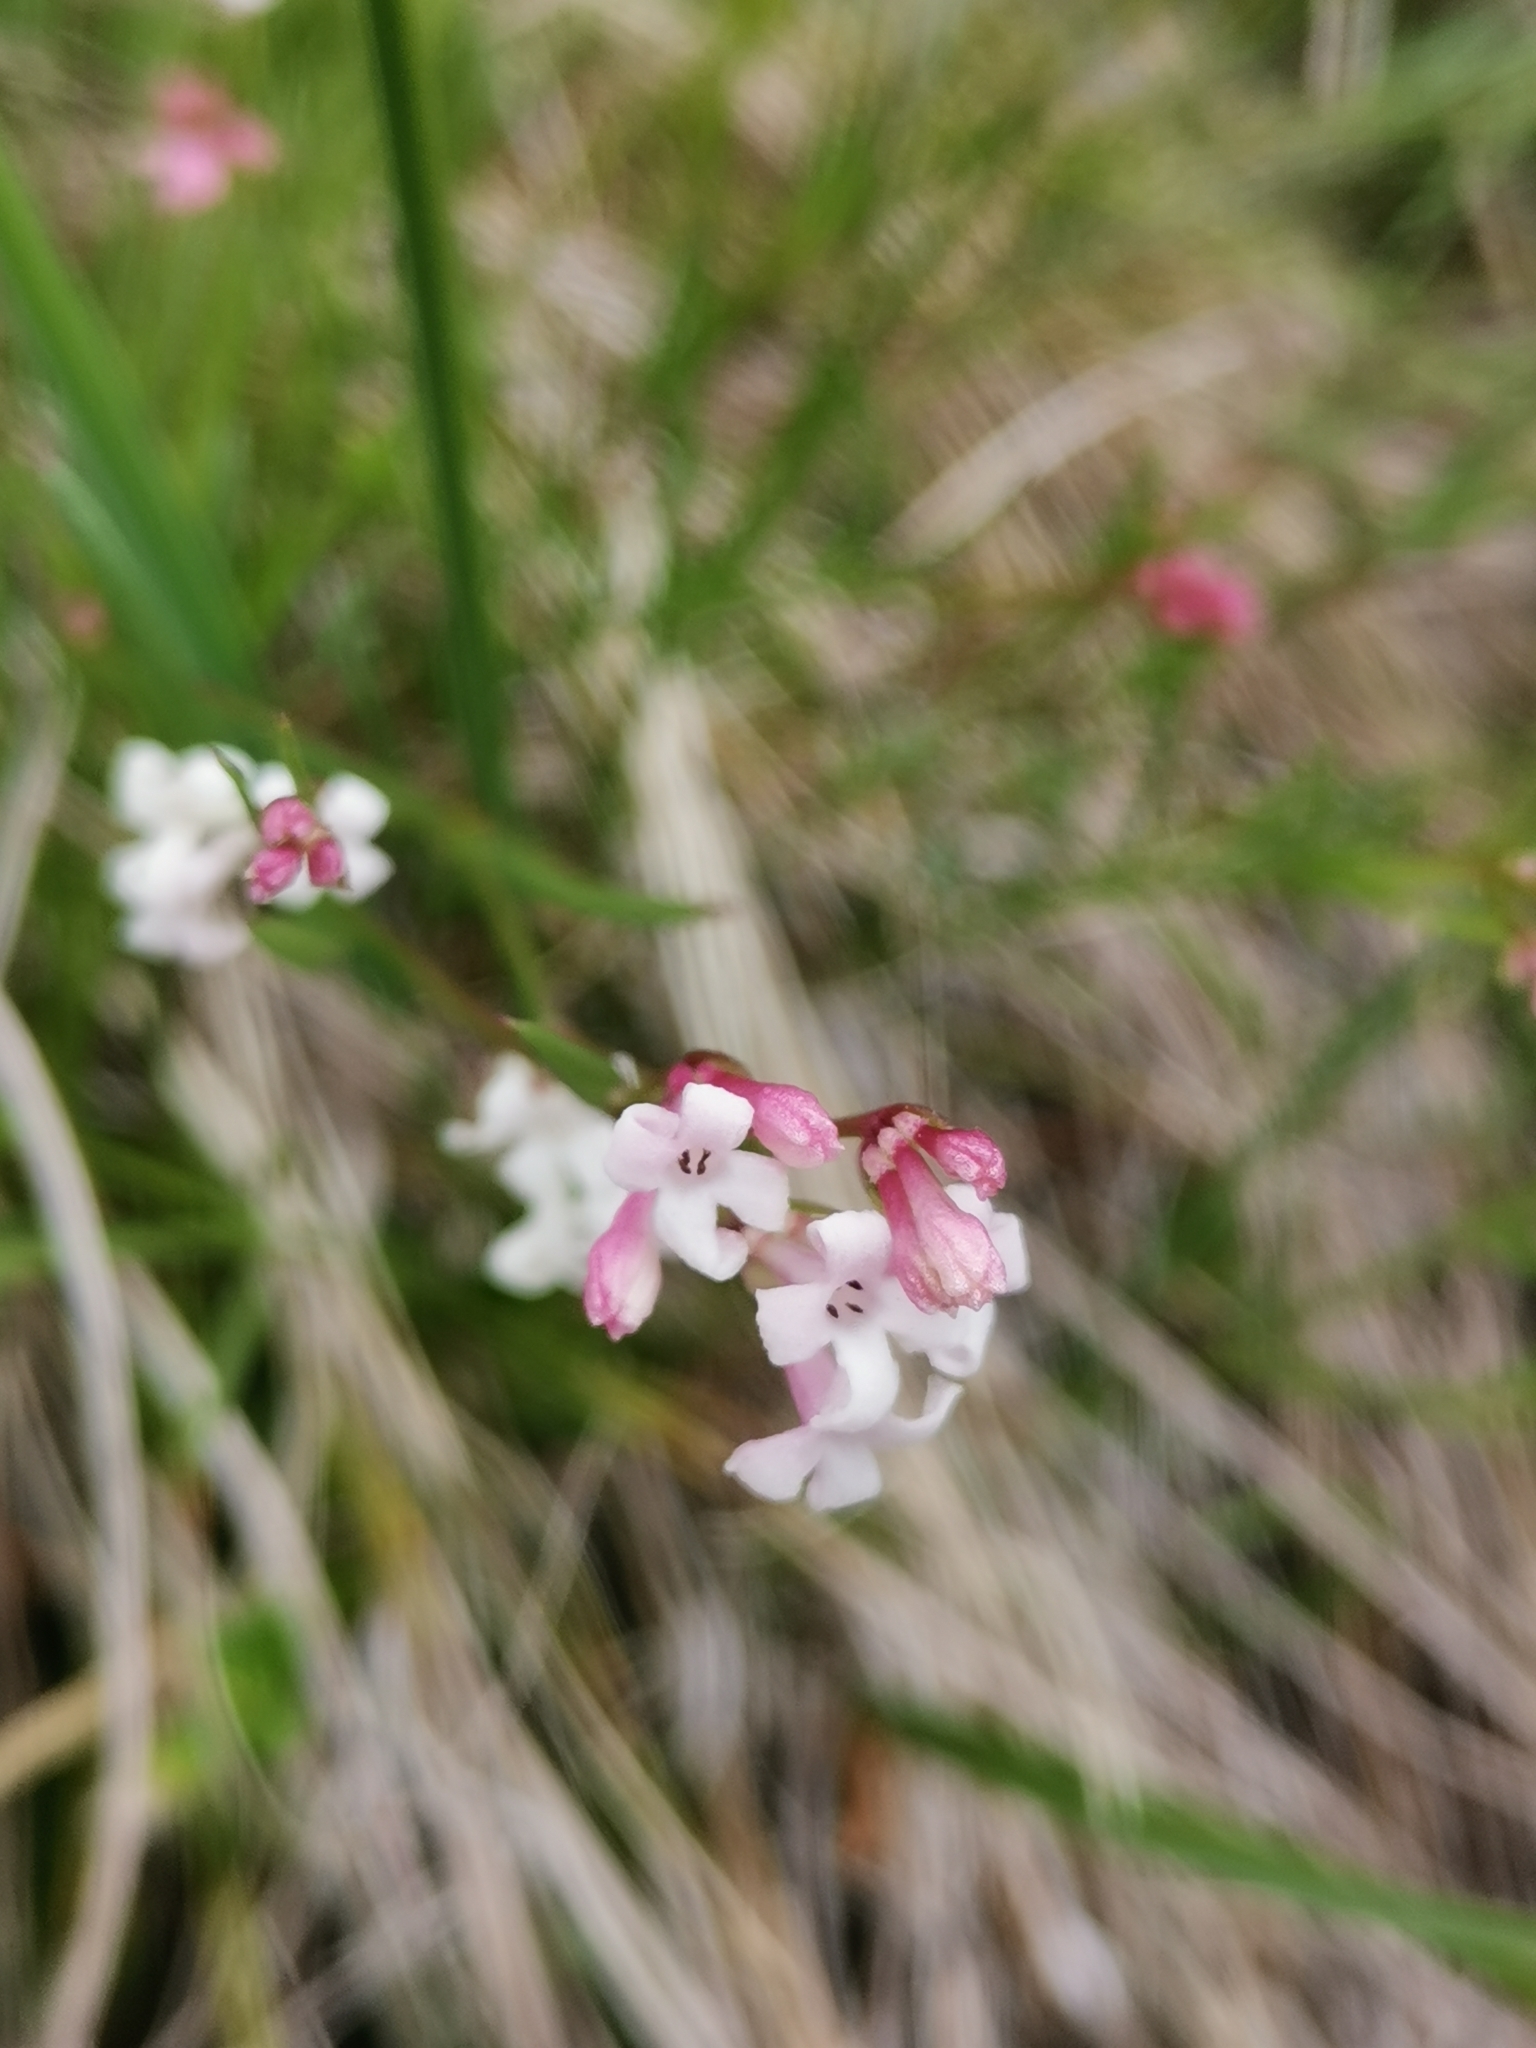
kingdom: Plantae
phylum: Tracheophyta
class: Magnoliopsida
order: Gentianales
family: Rubiaceae
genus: Cynanchica
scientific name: Cynanchica aristata
